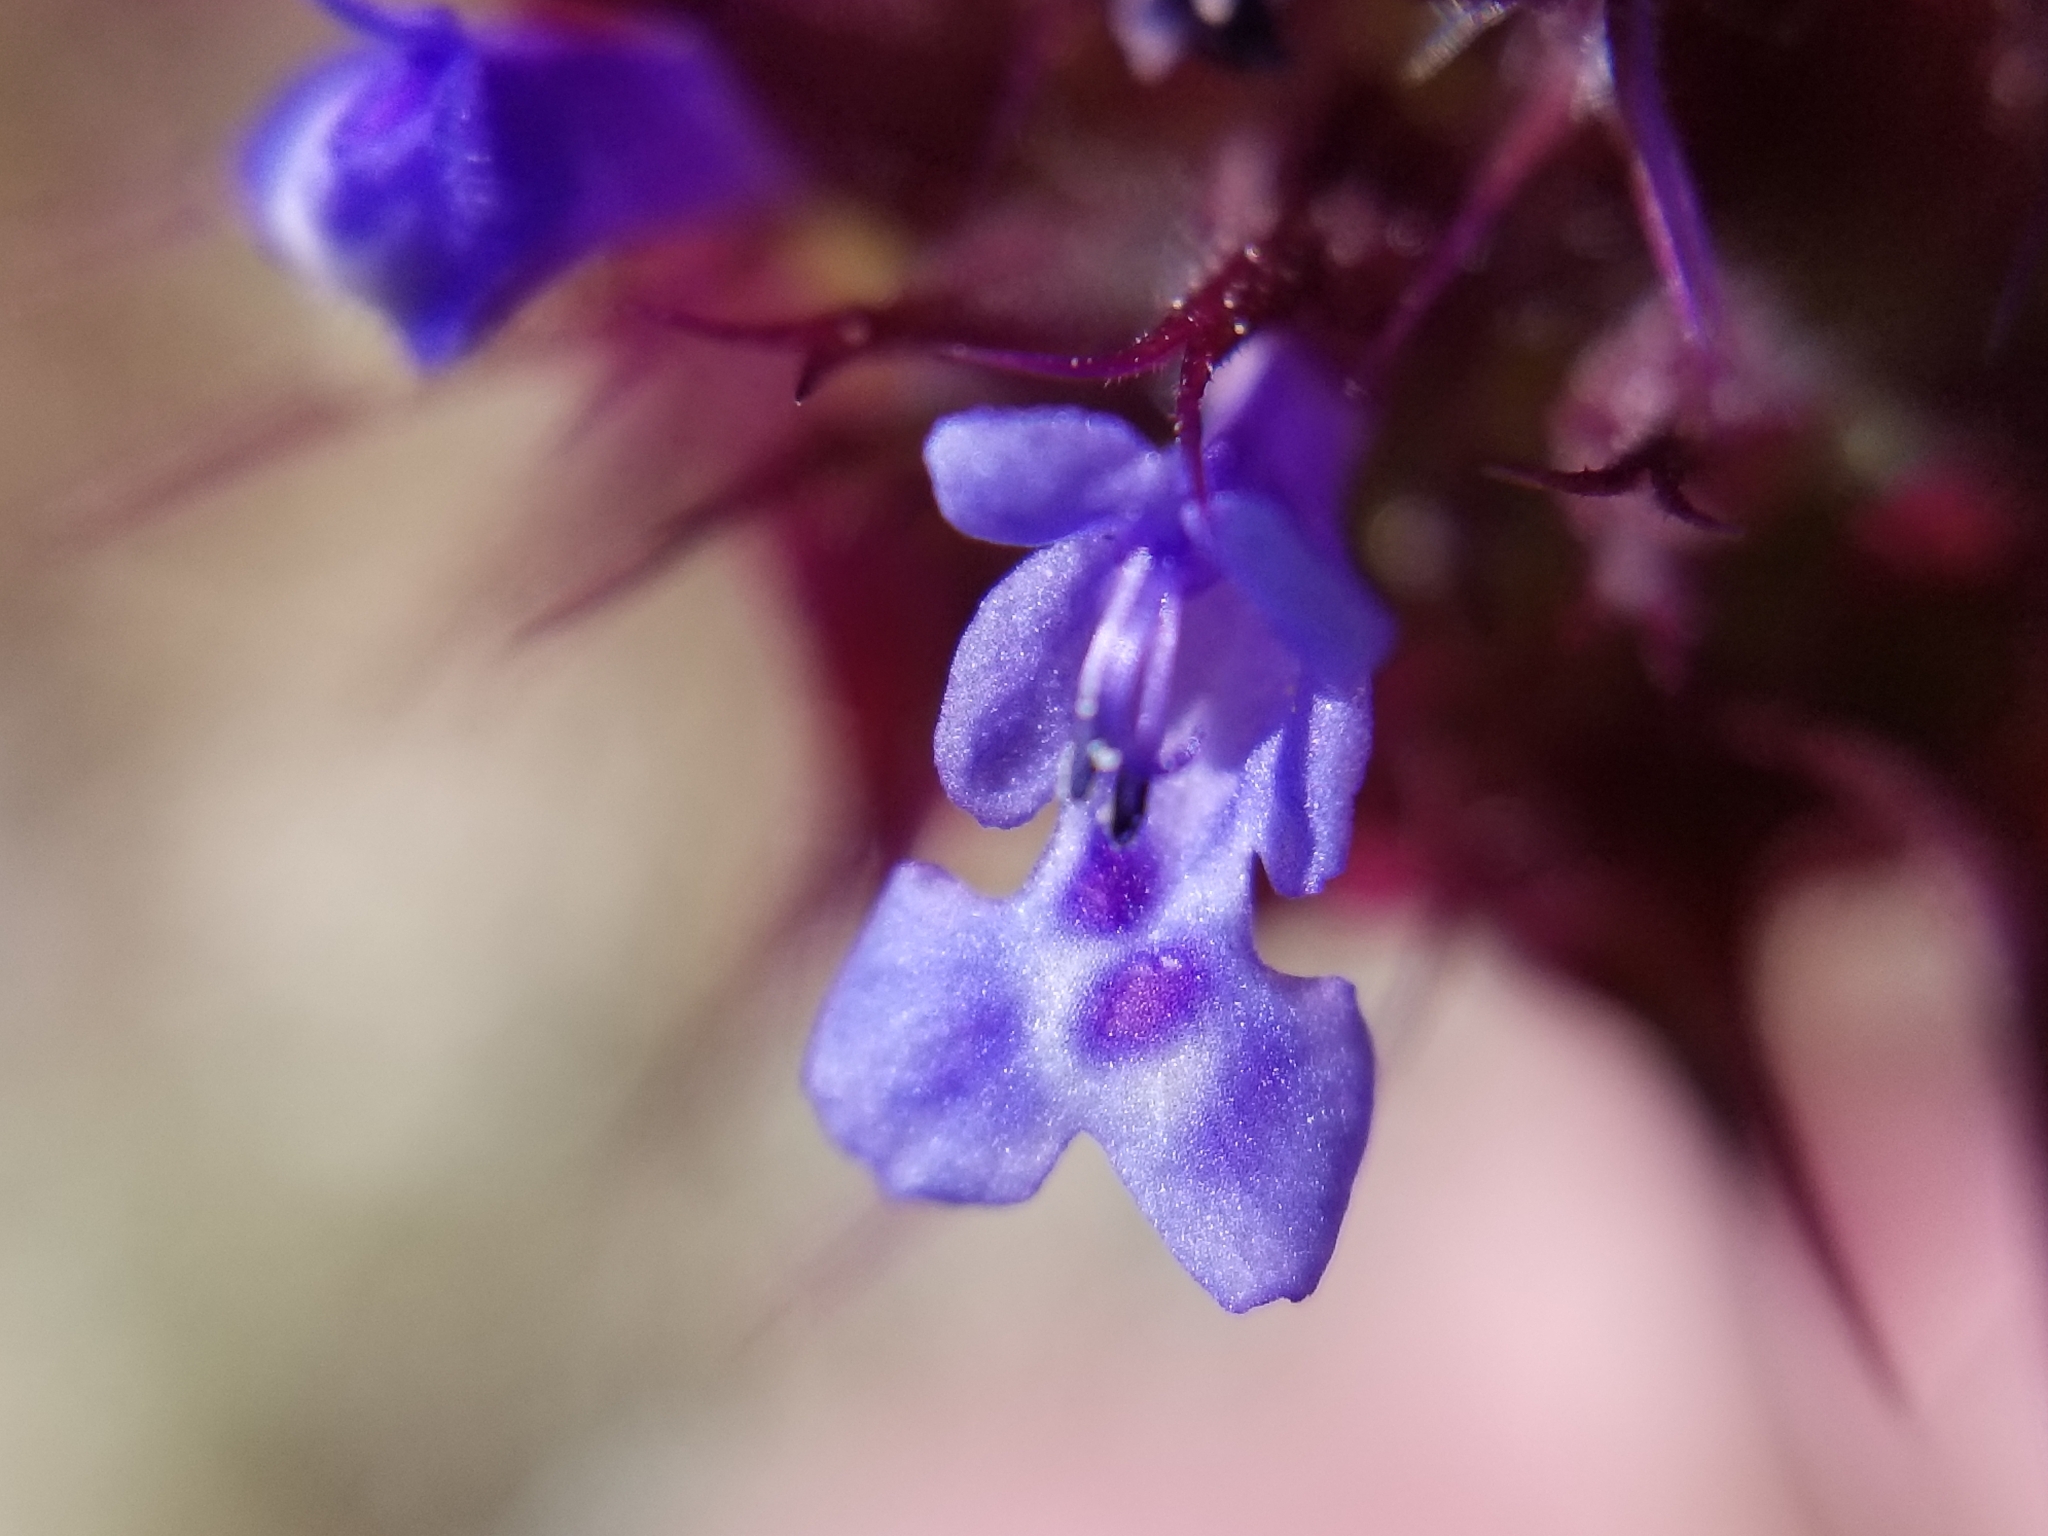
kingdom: Plantae
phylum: Tracheophyta
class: Magnoliopsida
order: Lamiales
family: Lamiaceae
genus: Salvia
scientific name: Salvia columbariae
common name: Chia
